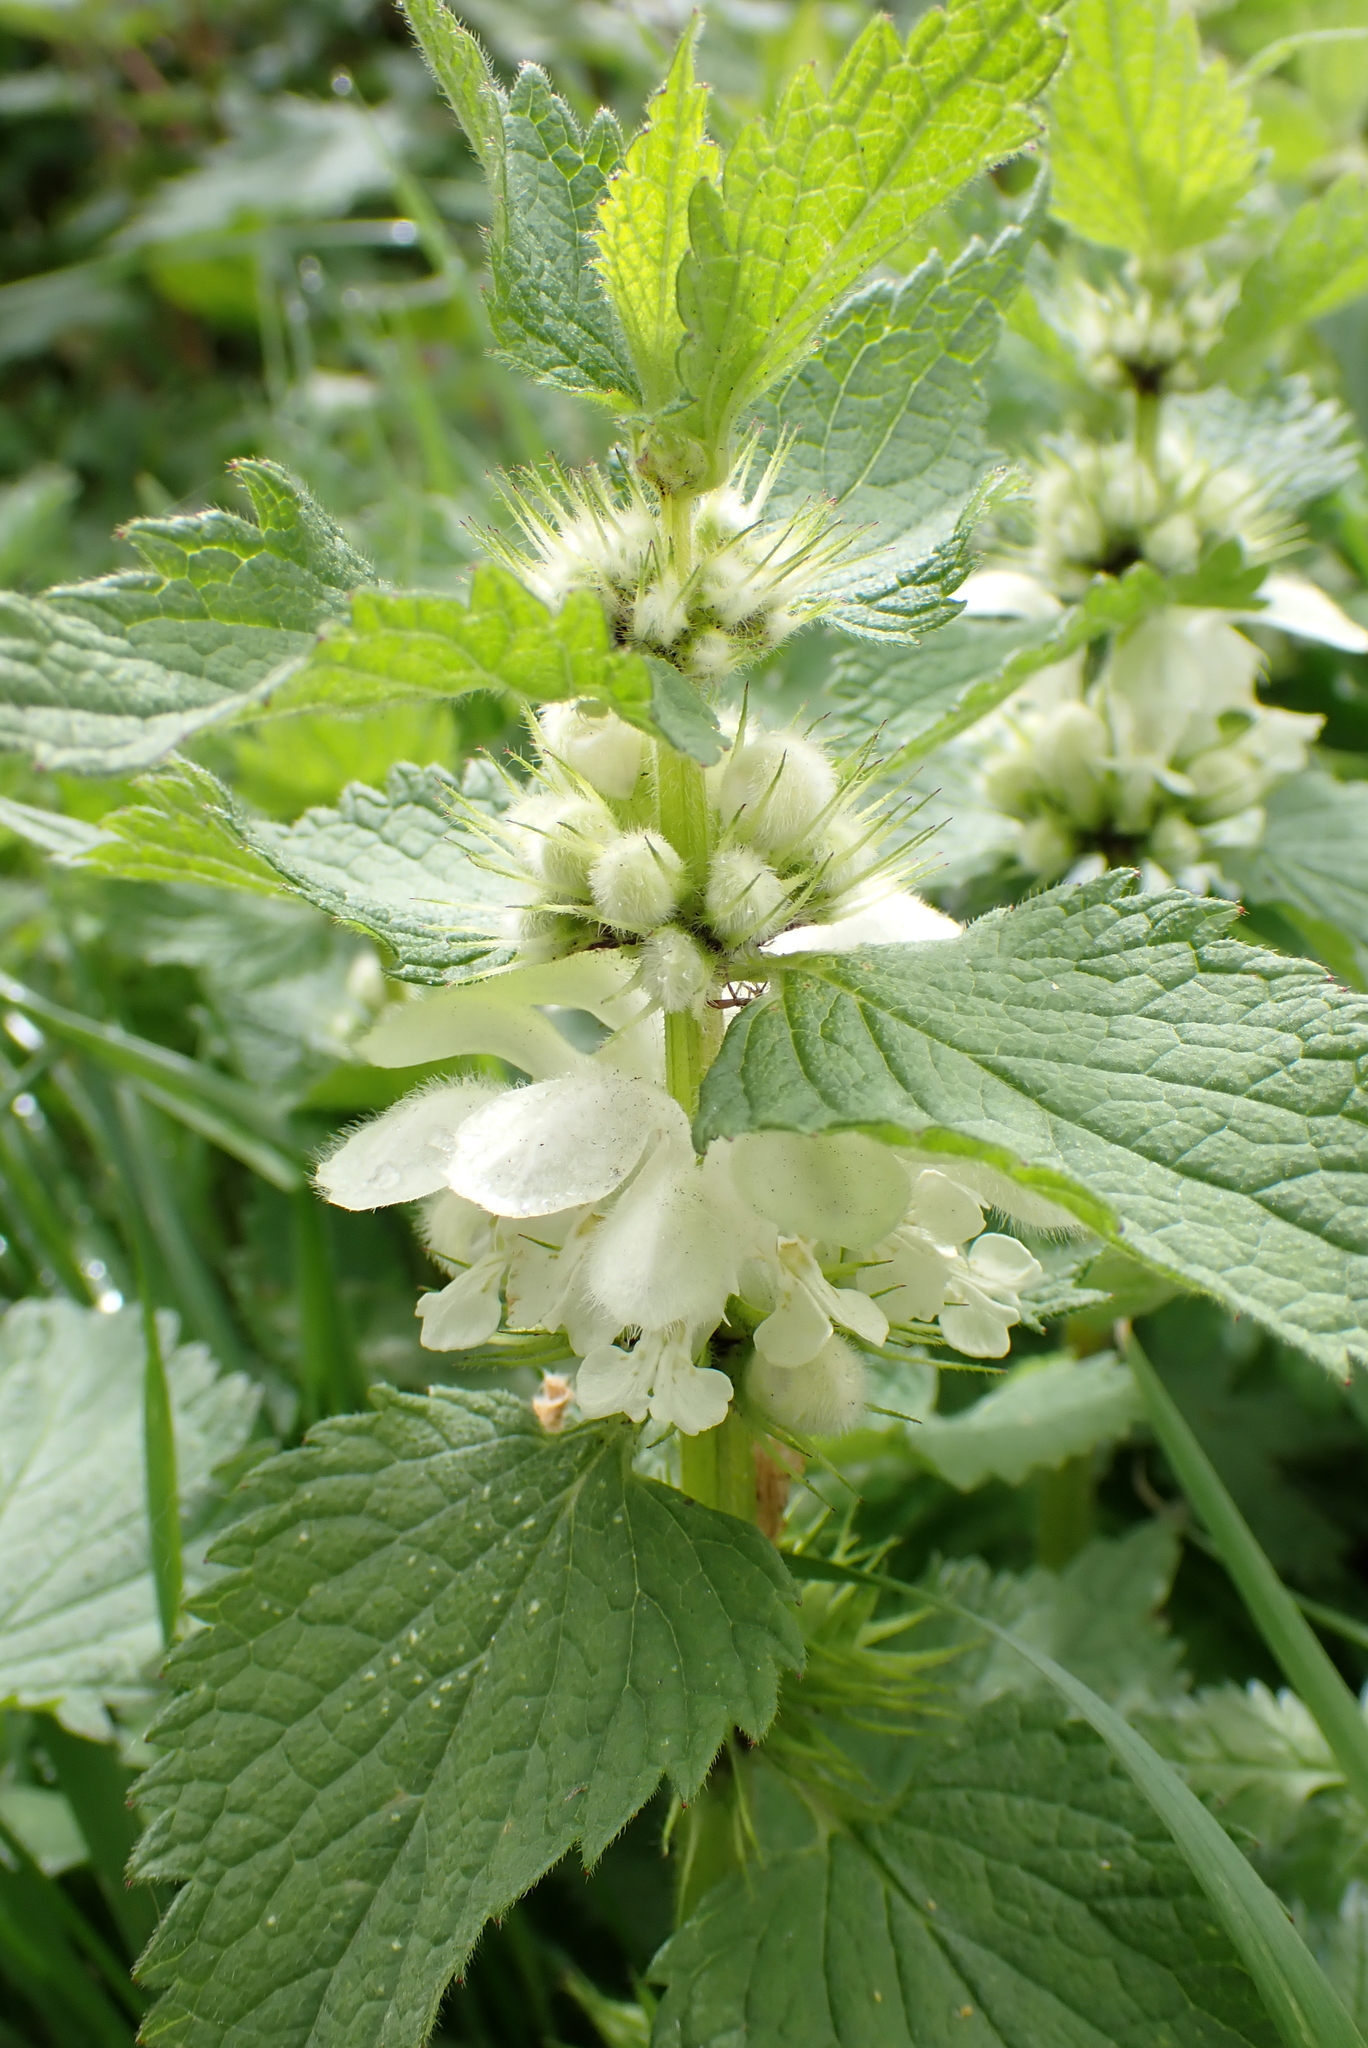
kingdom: Plantae
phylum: Tracheophyta
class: Magnoliopsida
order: Lamiales
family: Lamiaceae
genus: Lamium
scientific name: Lamium album
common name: White dead-nettle
